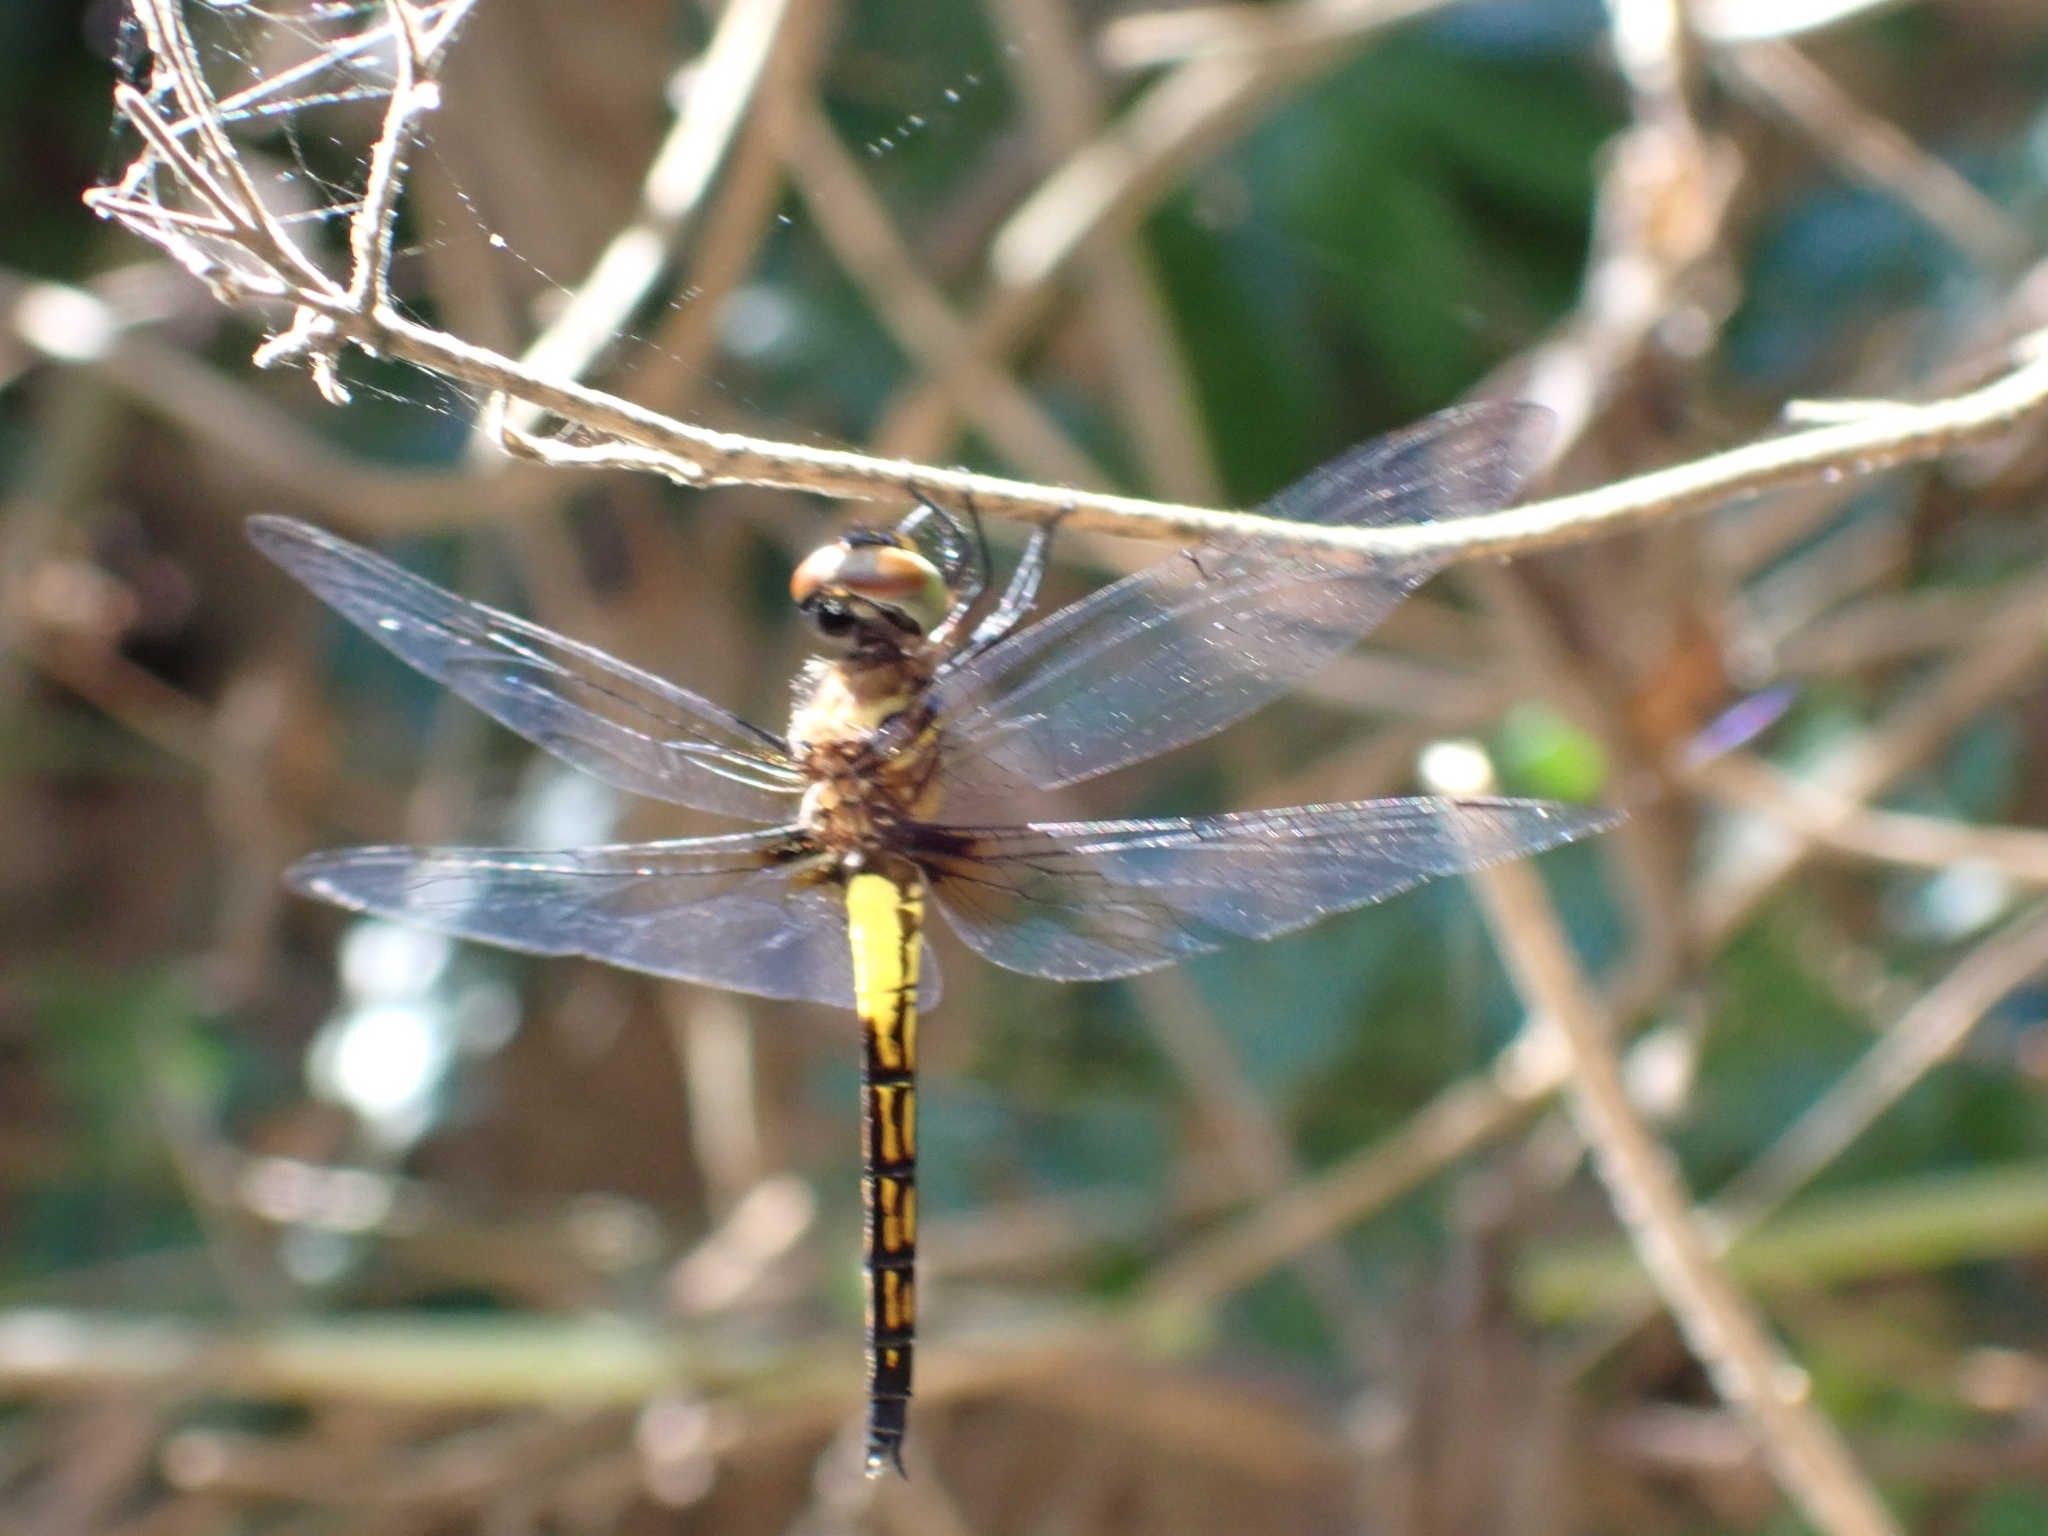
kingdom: Animalia
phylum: Arthropoda
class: Insecta
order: Odonata
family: Libellulidae
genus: Pseudothemis
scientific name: Pseudothemis jorina
